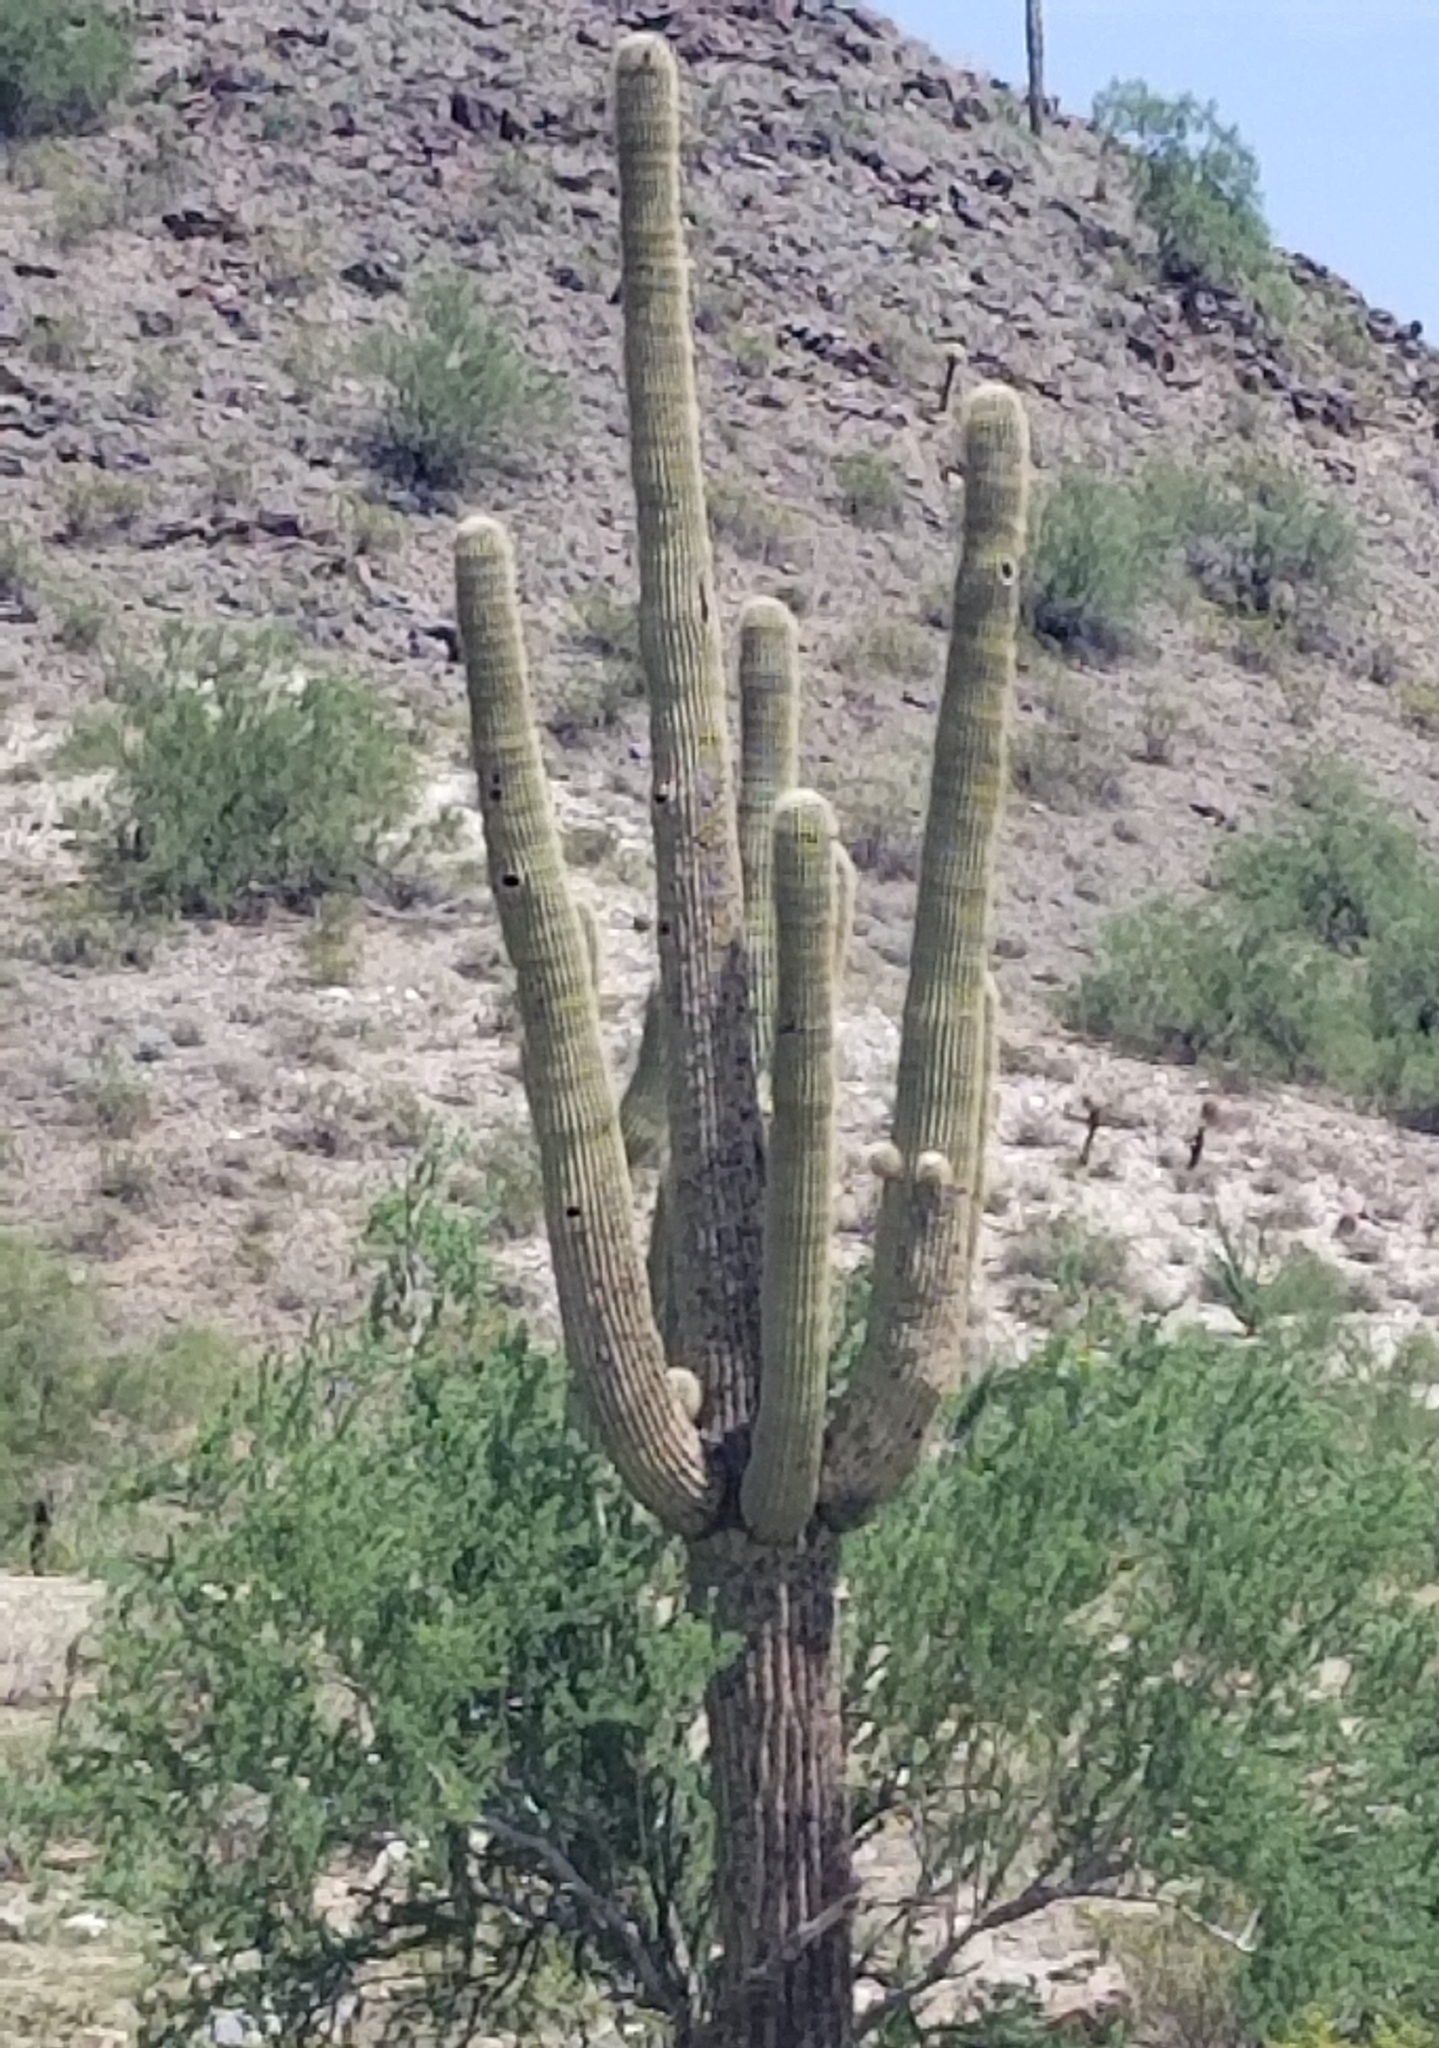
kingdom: Plantae
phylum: Tracheophyta
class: Magnoliopsida
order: Caryophyllales
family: Cactaceae
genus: Carnegiea
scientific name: Carnegiea gigantea
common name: Saguaro
